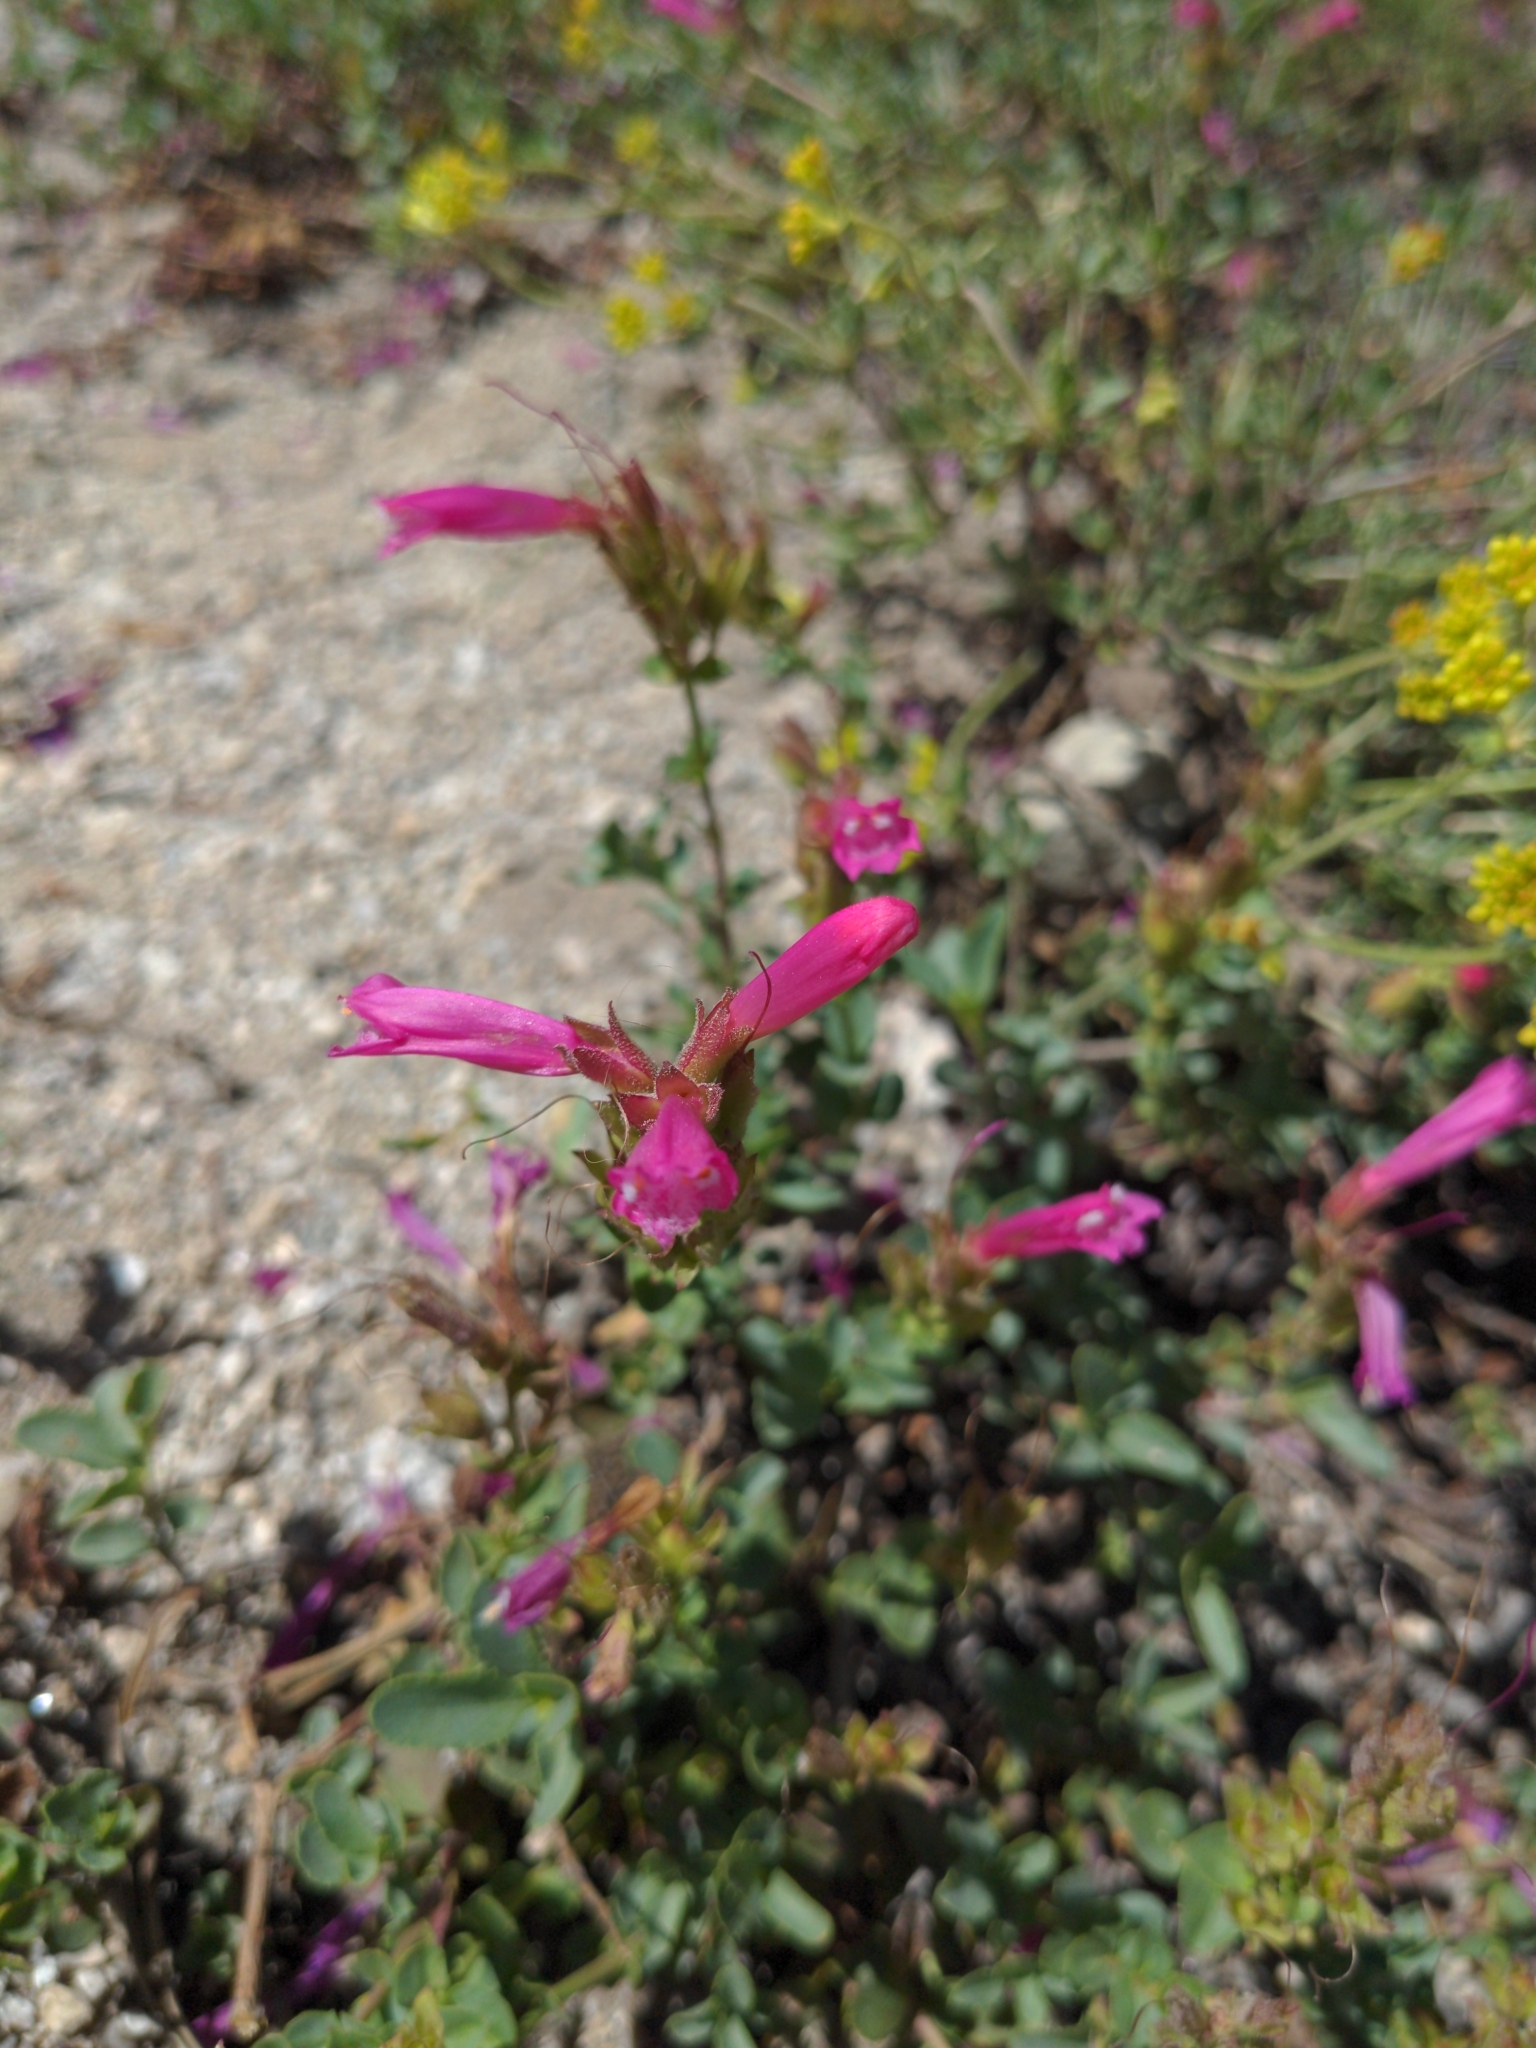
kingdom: Plantae
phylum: Tracheophyta
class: Magnoliopsida
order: Lamiales
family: Plantaginaceae
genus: Penstemon
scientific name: Penstemon newberryi
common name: Mountain-pride
